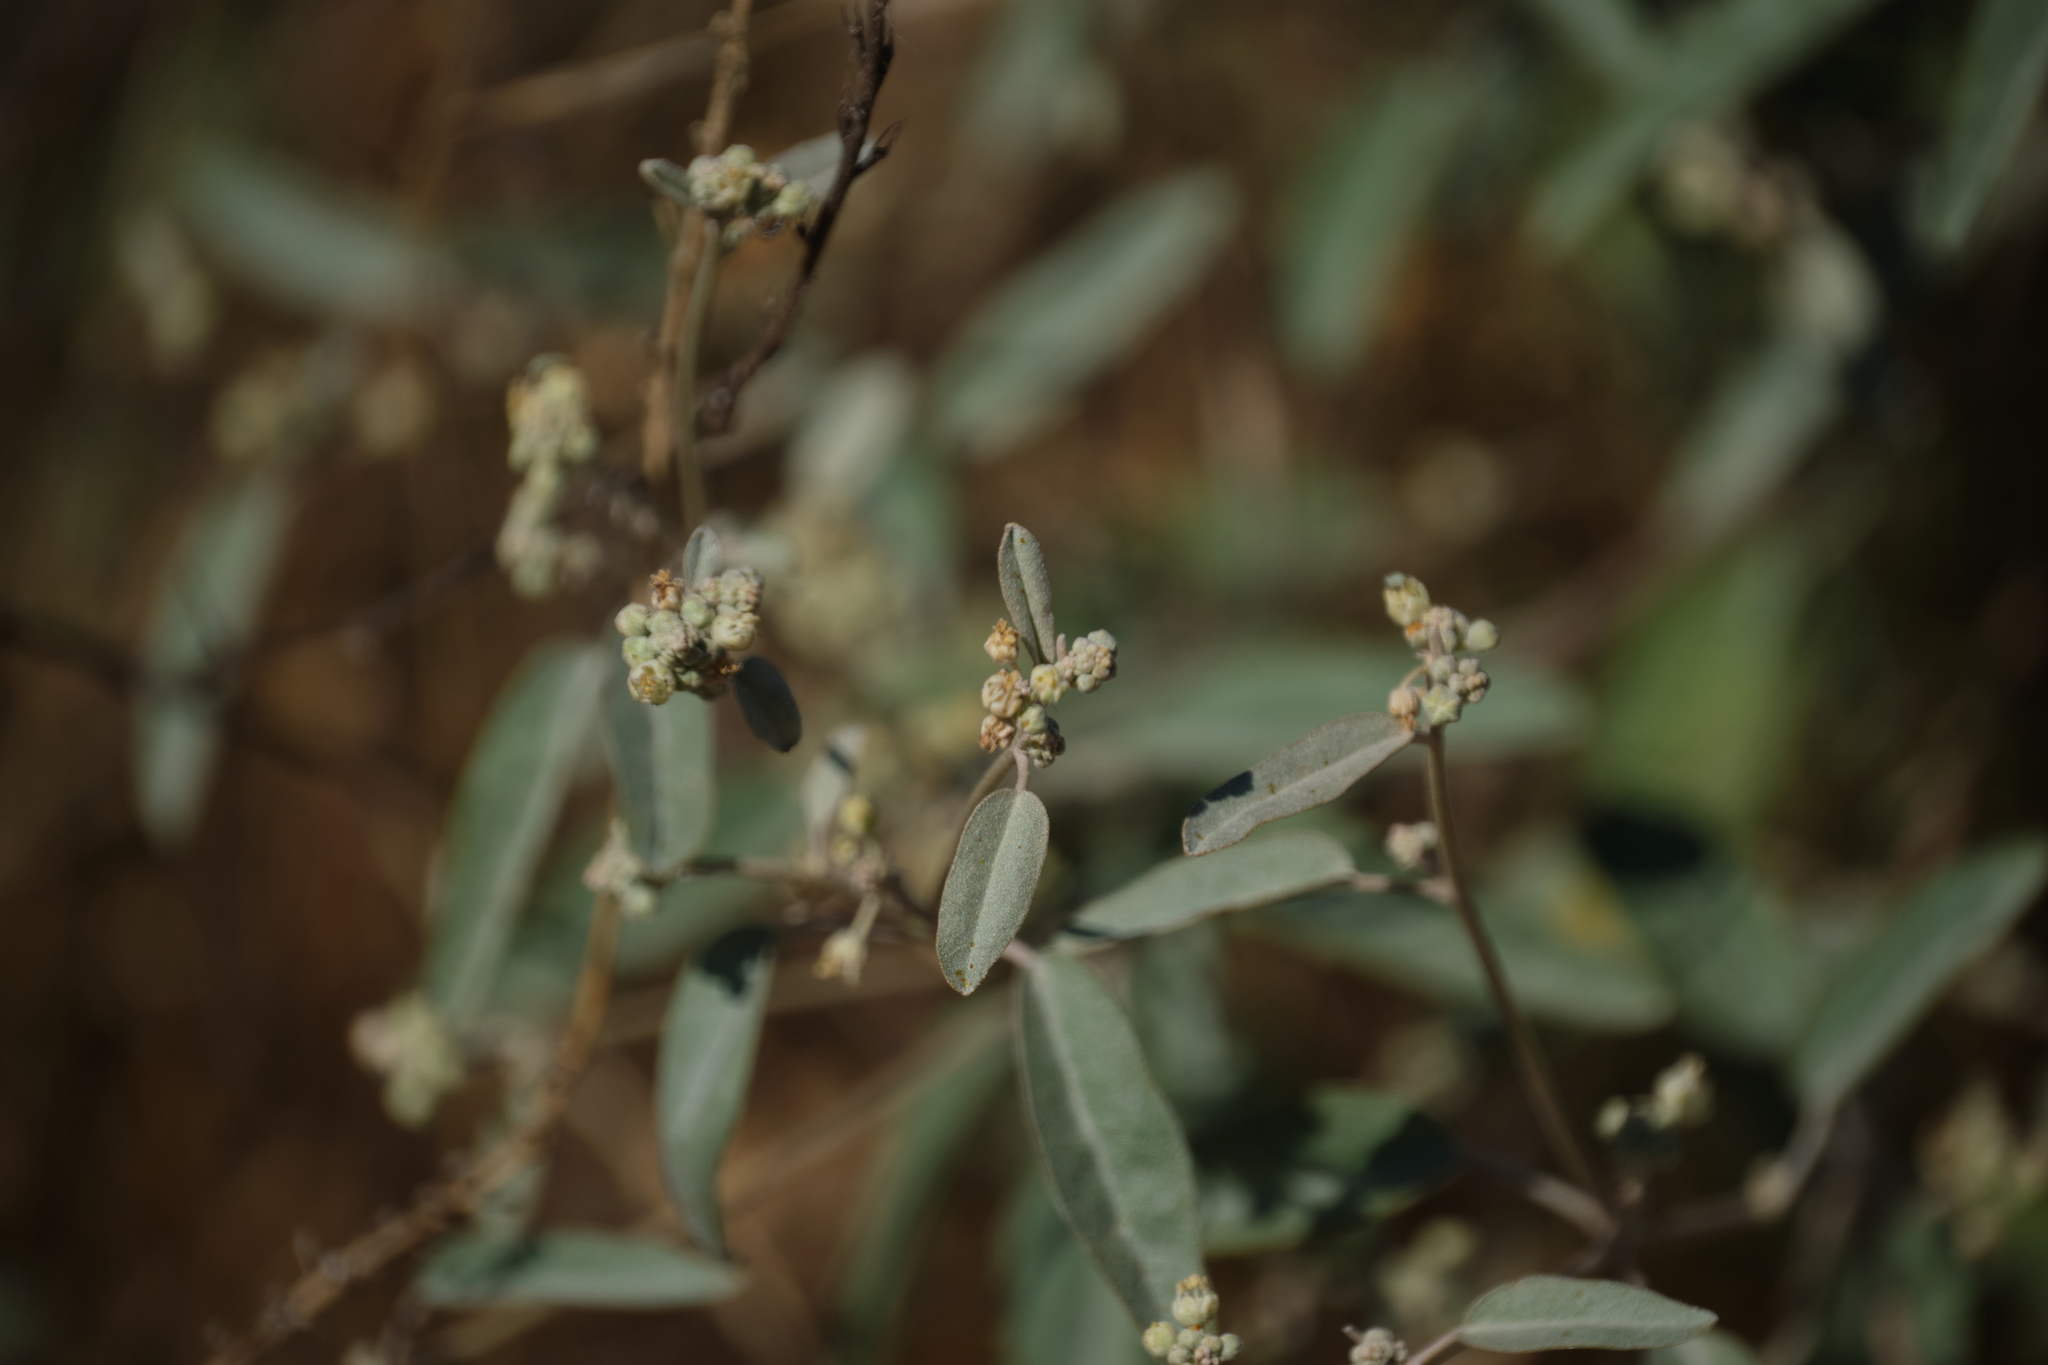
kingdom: Plantae
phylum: Tracheophyta
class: Magnoliopsida
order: Malpighiales
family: Euphorbiaceae
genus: Croton
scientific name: Croton californicus
